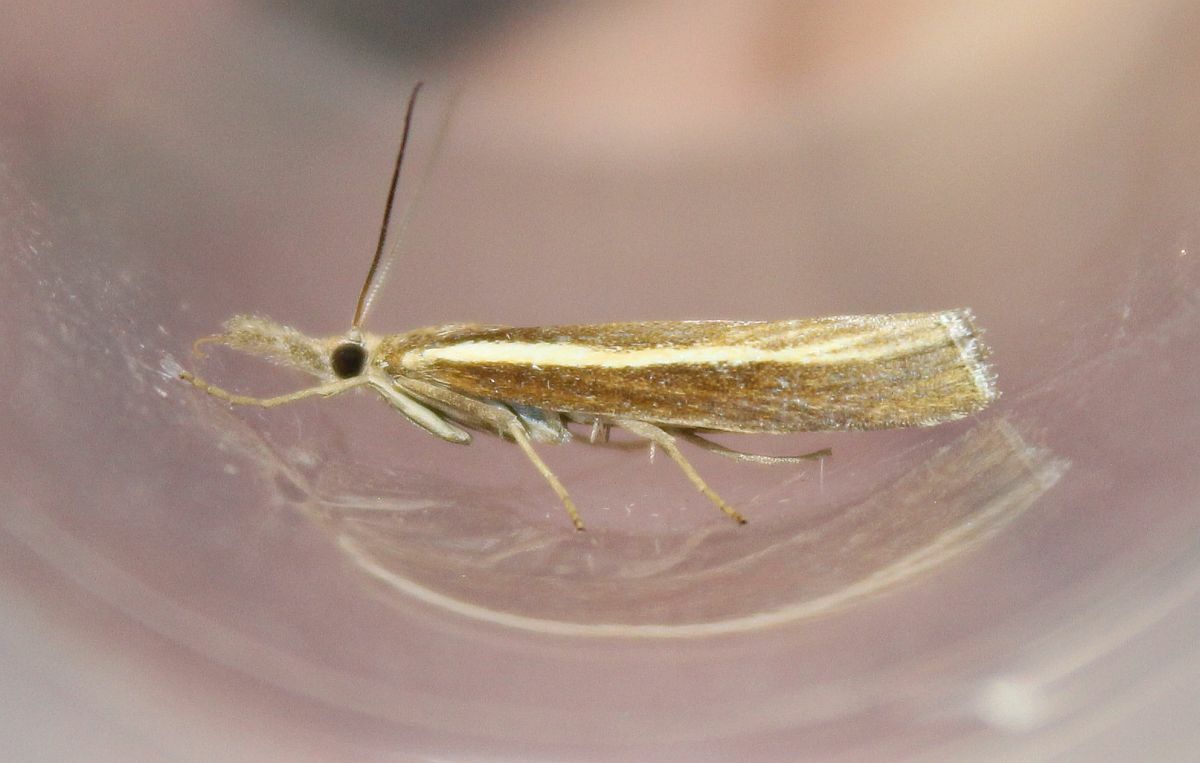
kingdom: Animalia
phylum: Arthropoda
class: Insecta
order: Lepidoptera
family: Crambidae
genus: Agriphila
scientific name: Agriphila tristellus
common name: Common grass-veneer
